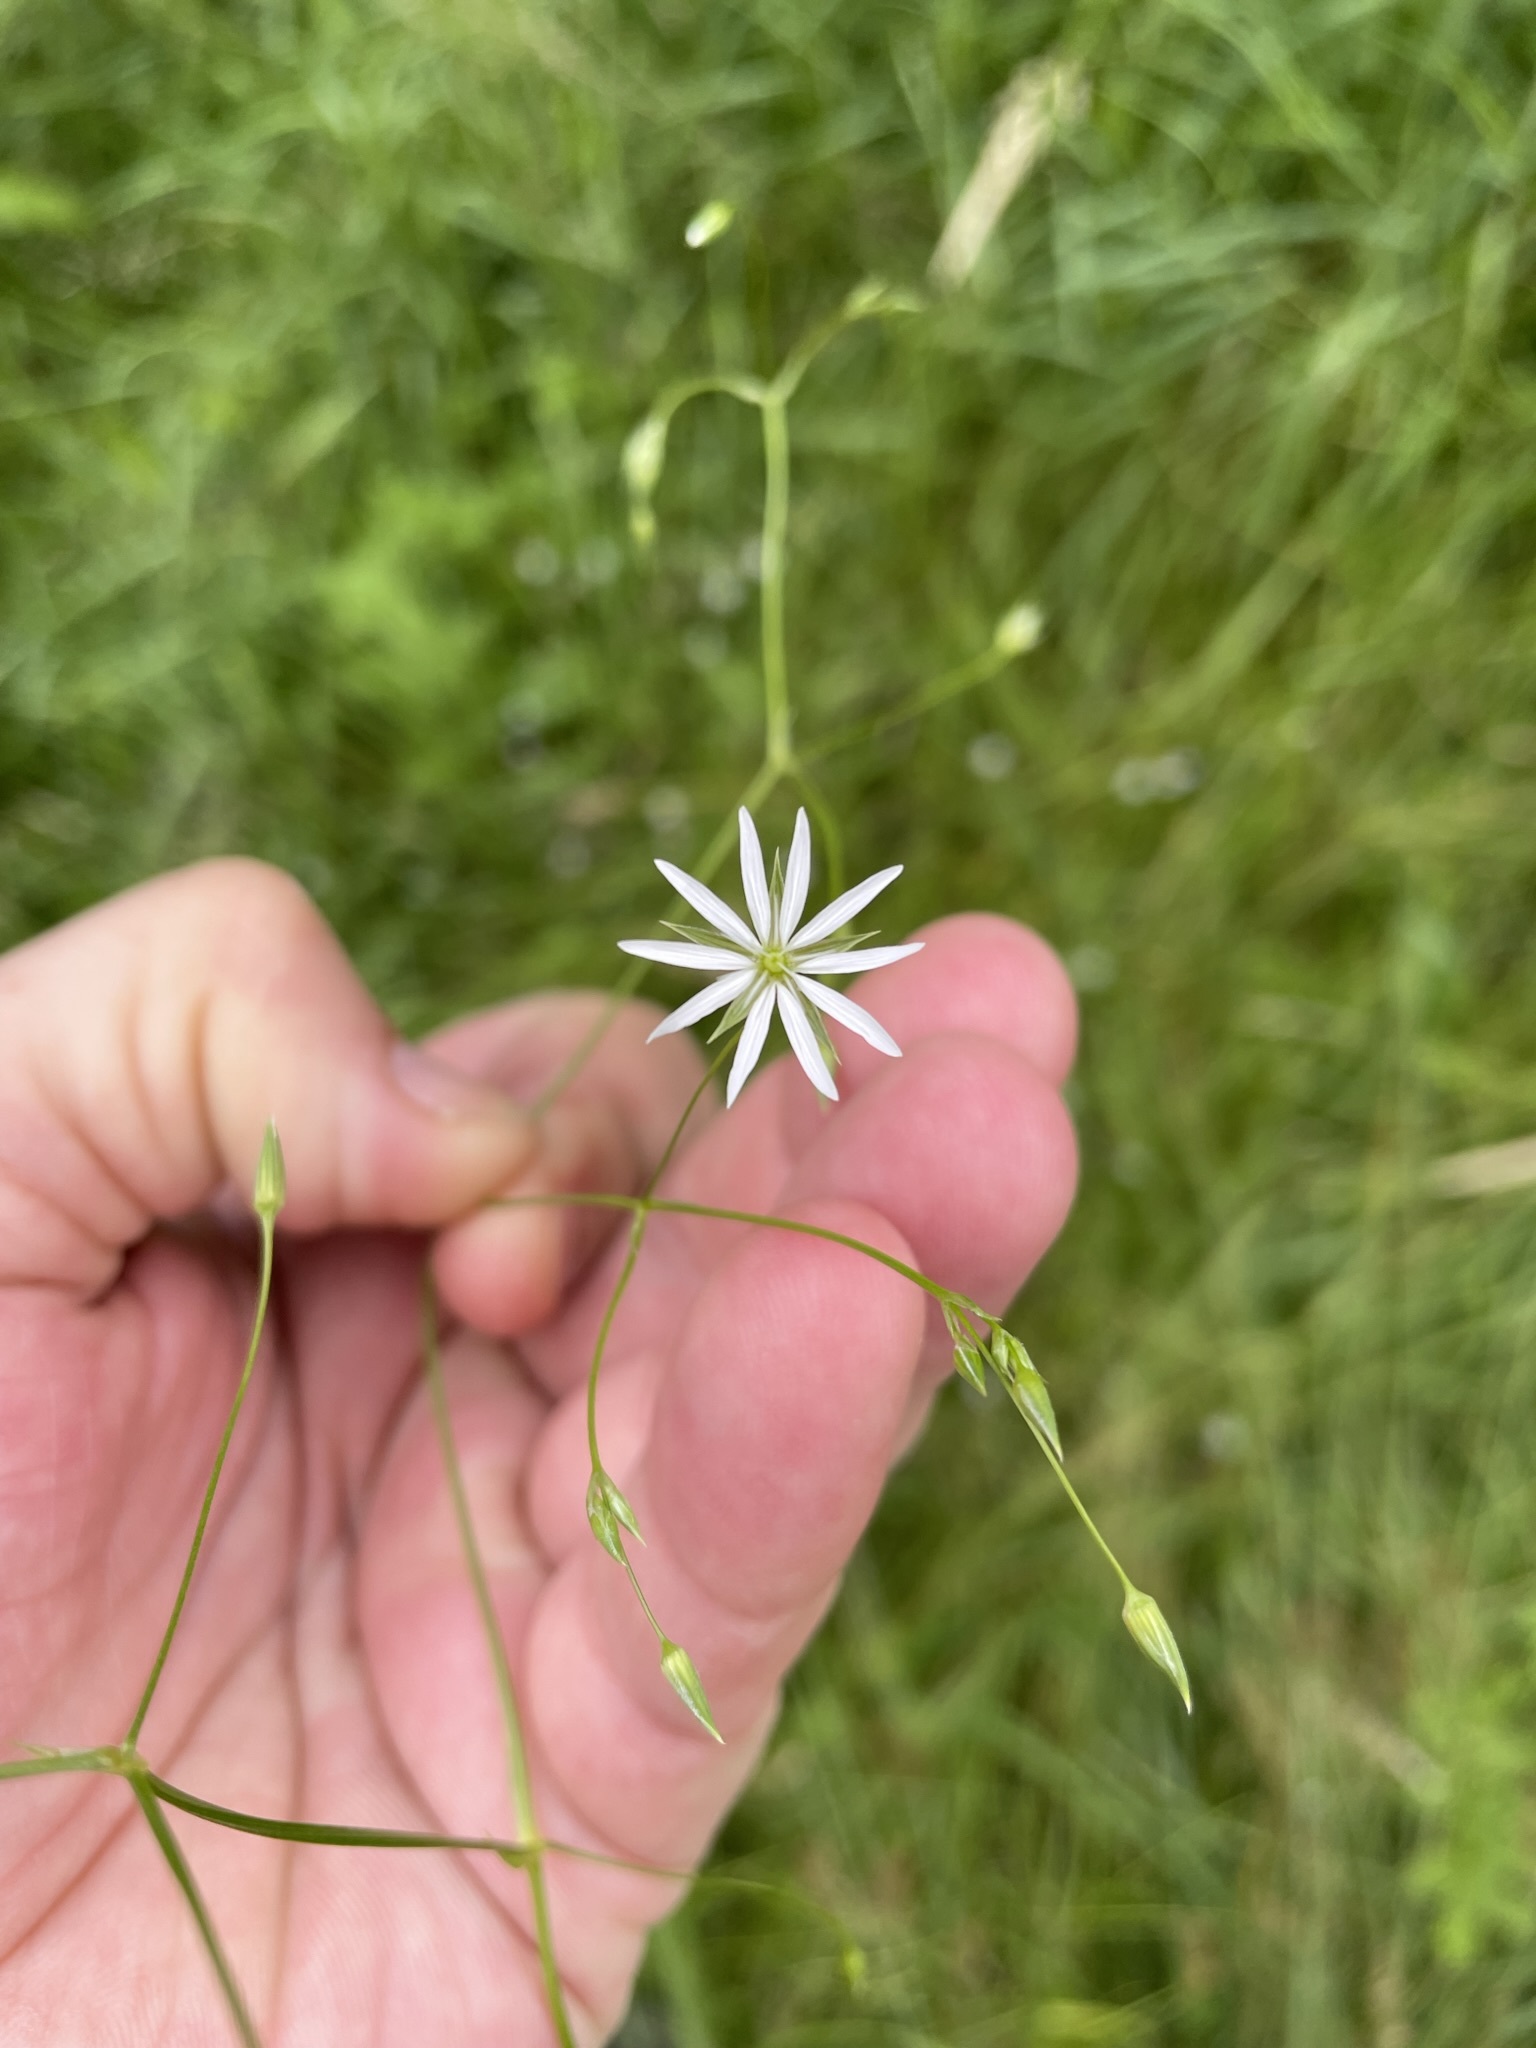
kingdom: Plantae
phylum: Tracheophyta
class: Magnoliopsida
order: Caryophyllales
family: Caryophyllaceae
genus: Stellaria
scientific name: Stellaria graminea
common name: Grass-like starwort
